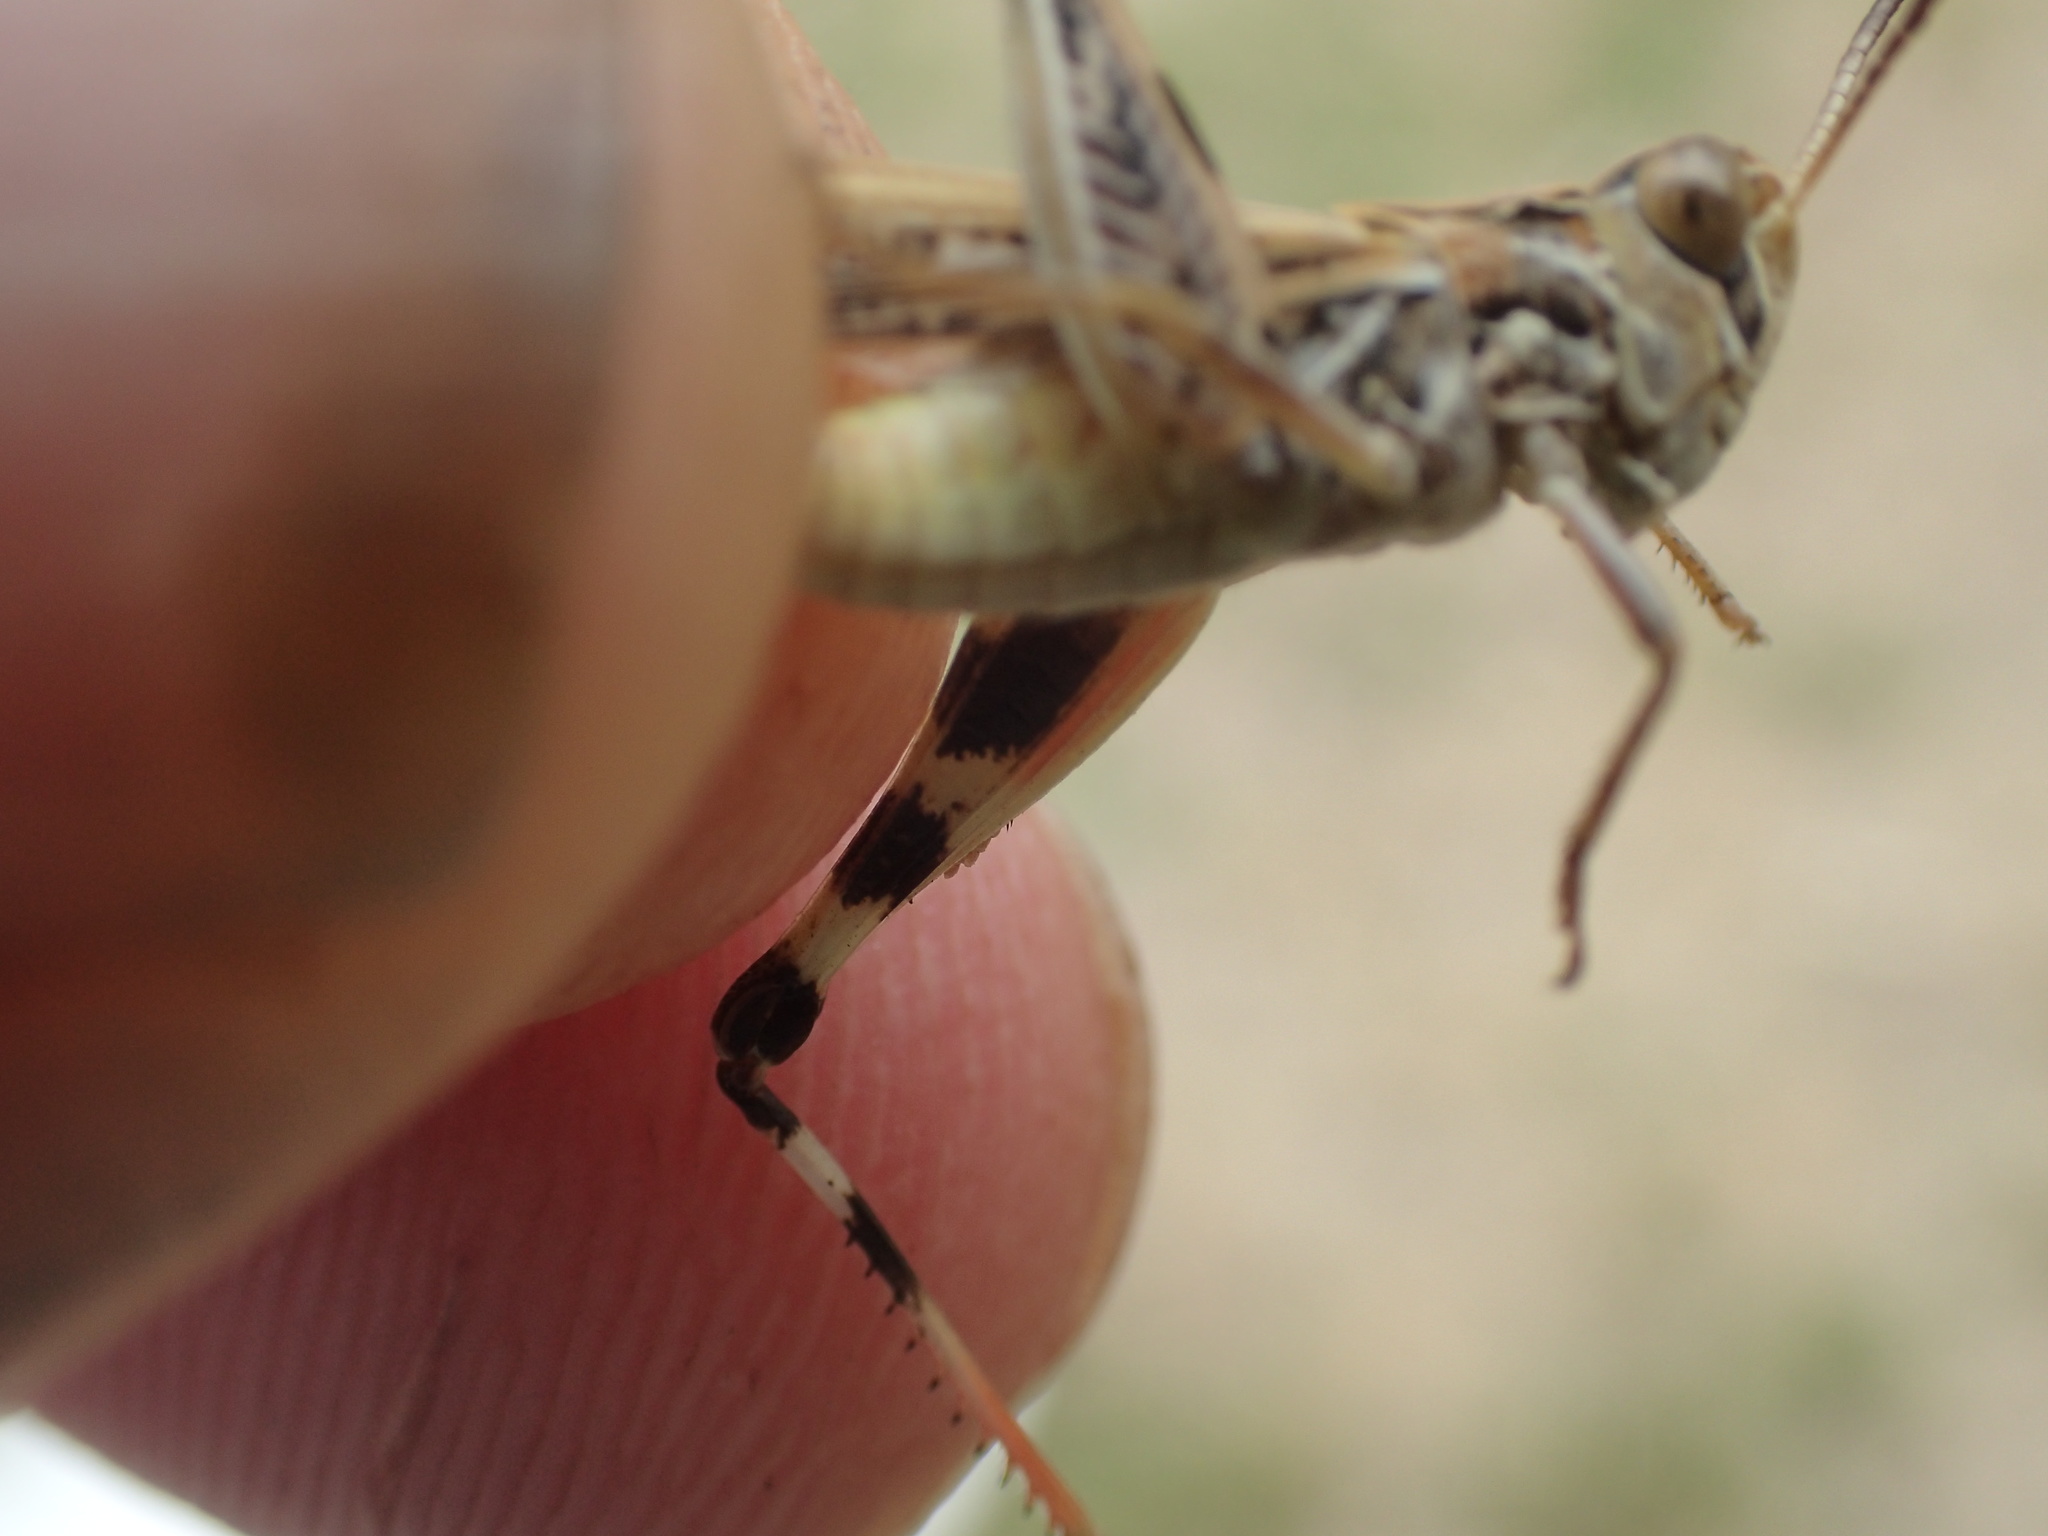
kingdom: Animalia
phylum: Arthropoda
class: Insecta
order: Orthoptera
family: Acrididae
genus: Austroicetes
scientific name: Austroicetes vulgaris
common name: Southeastern austroicetes
